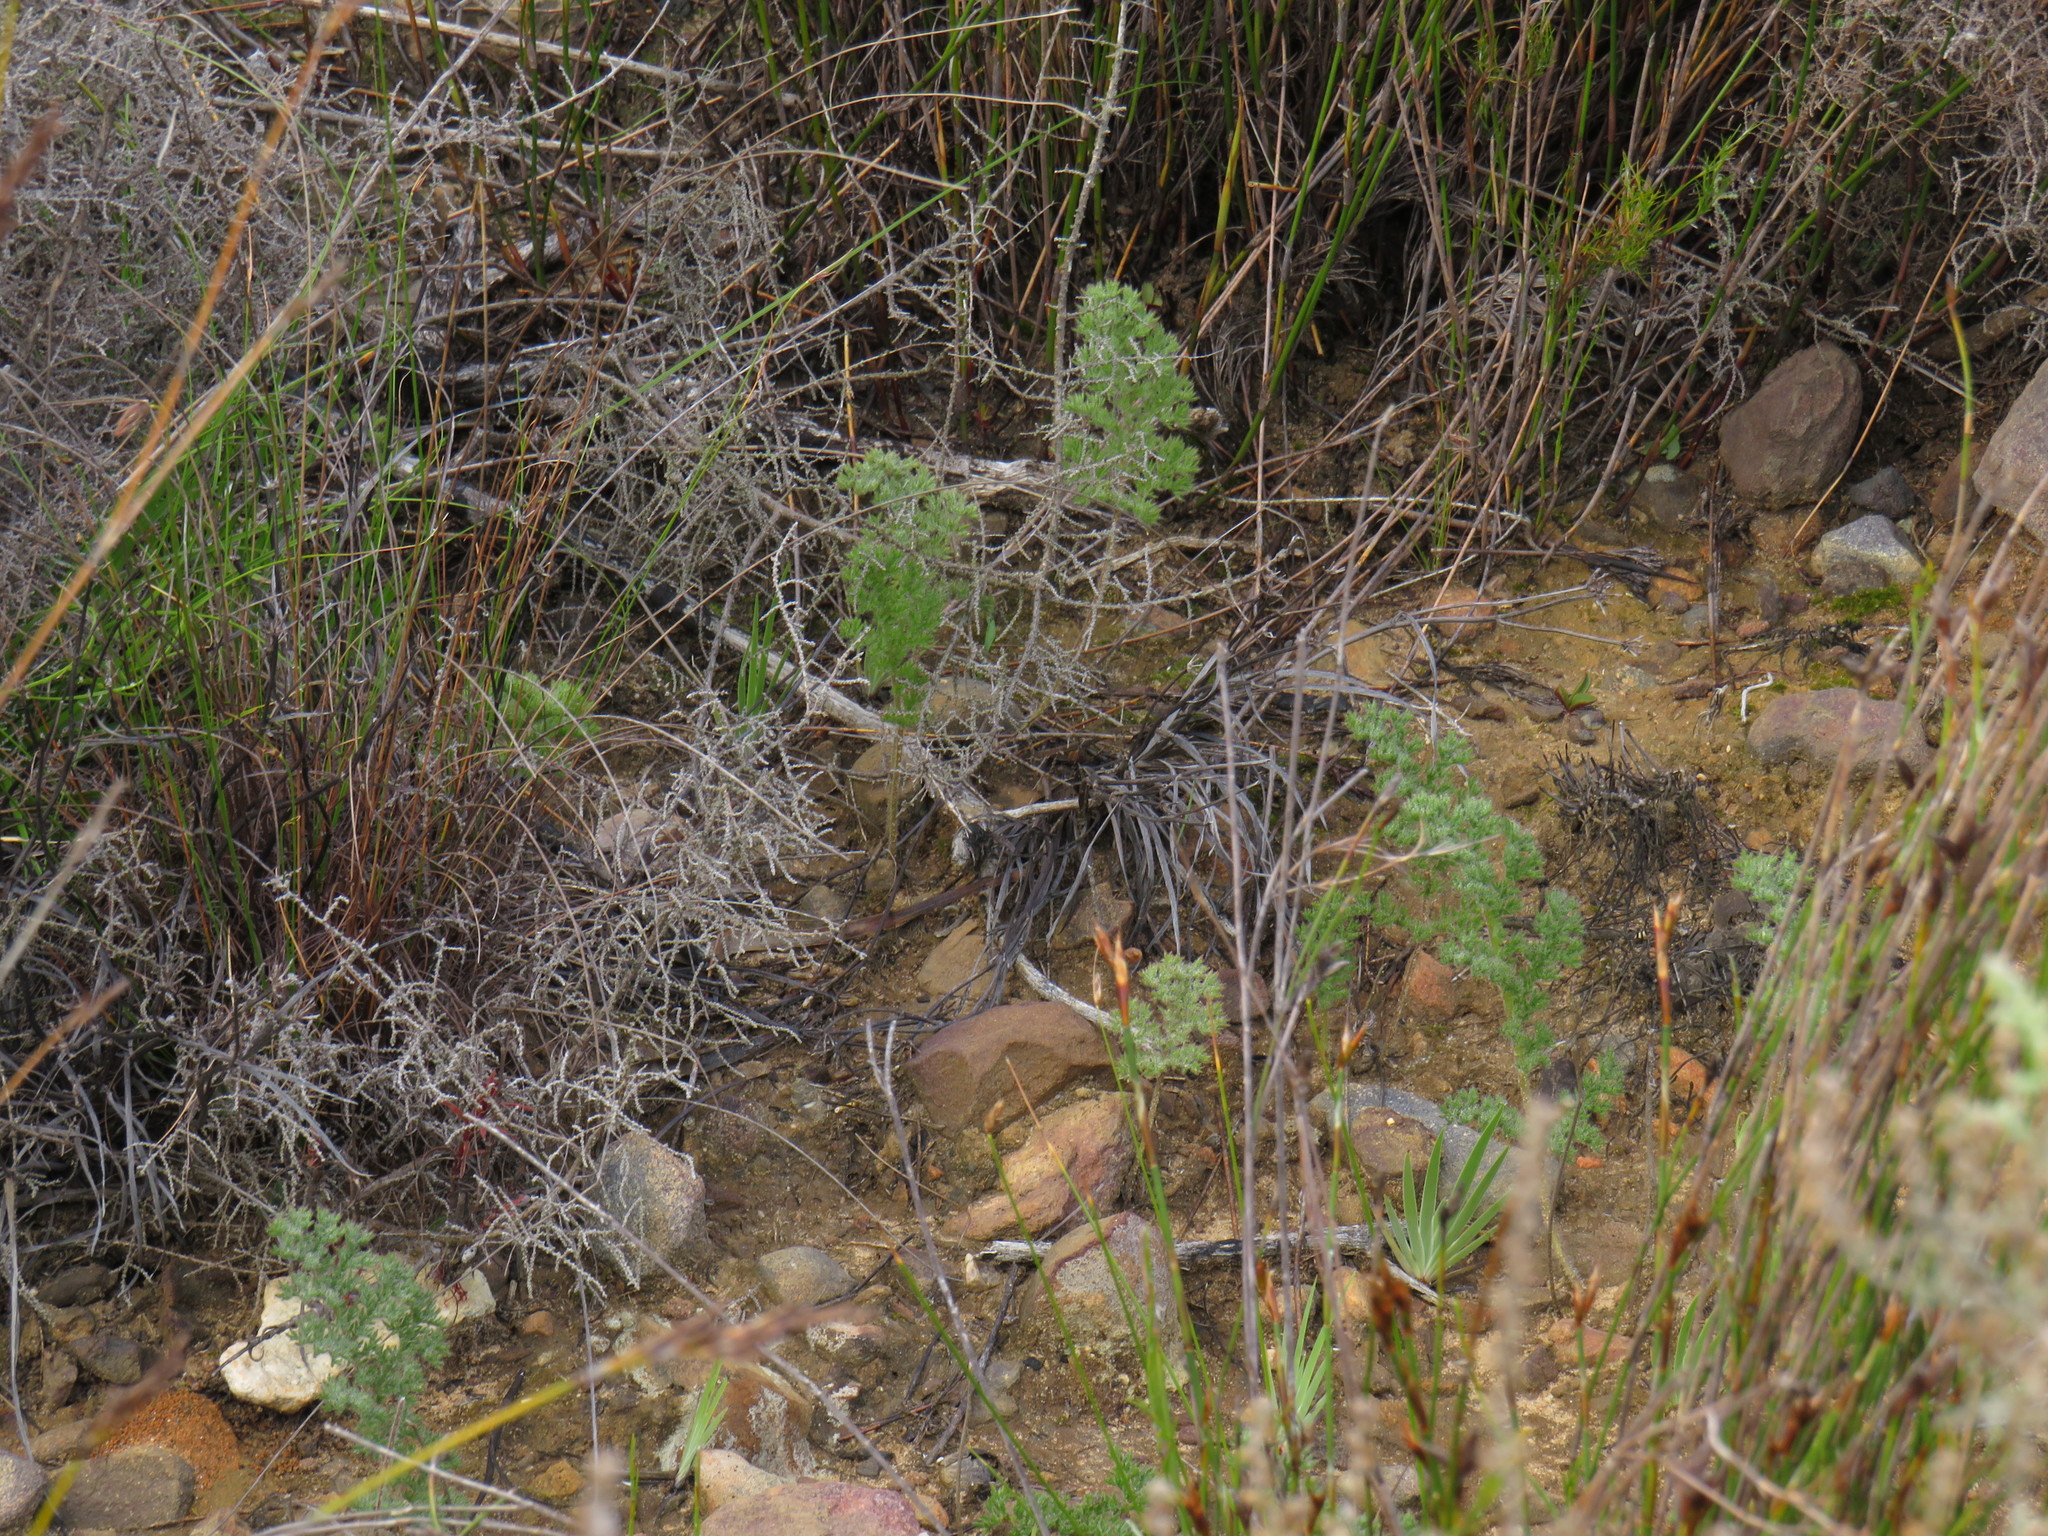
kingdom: Plantae
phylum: Tracheophyta
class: Magnoliopsida
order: Geraniales
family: Geraniaceae
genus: Pelargonium
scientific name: Pelargonium triste
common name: Night-scent pelargonium
